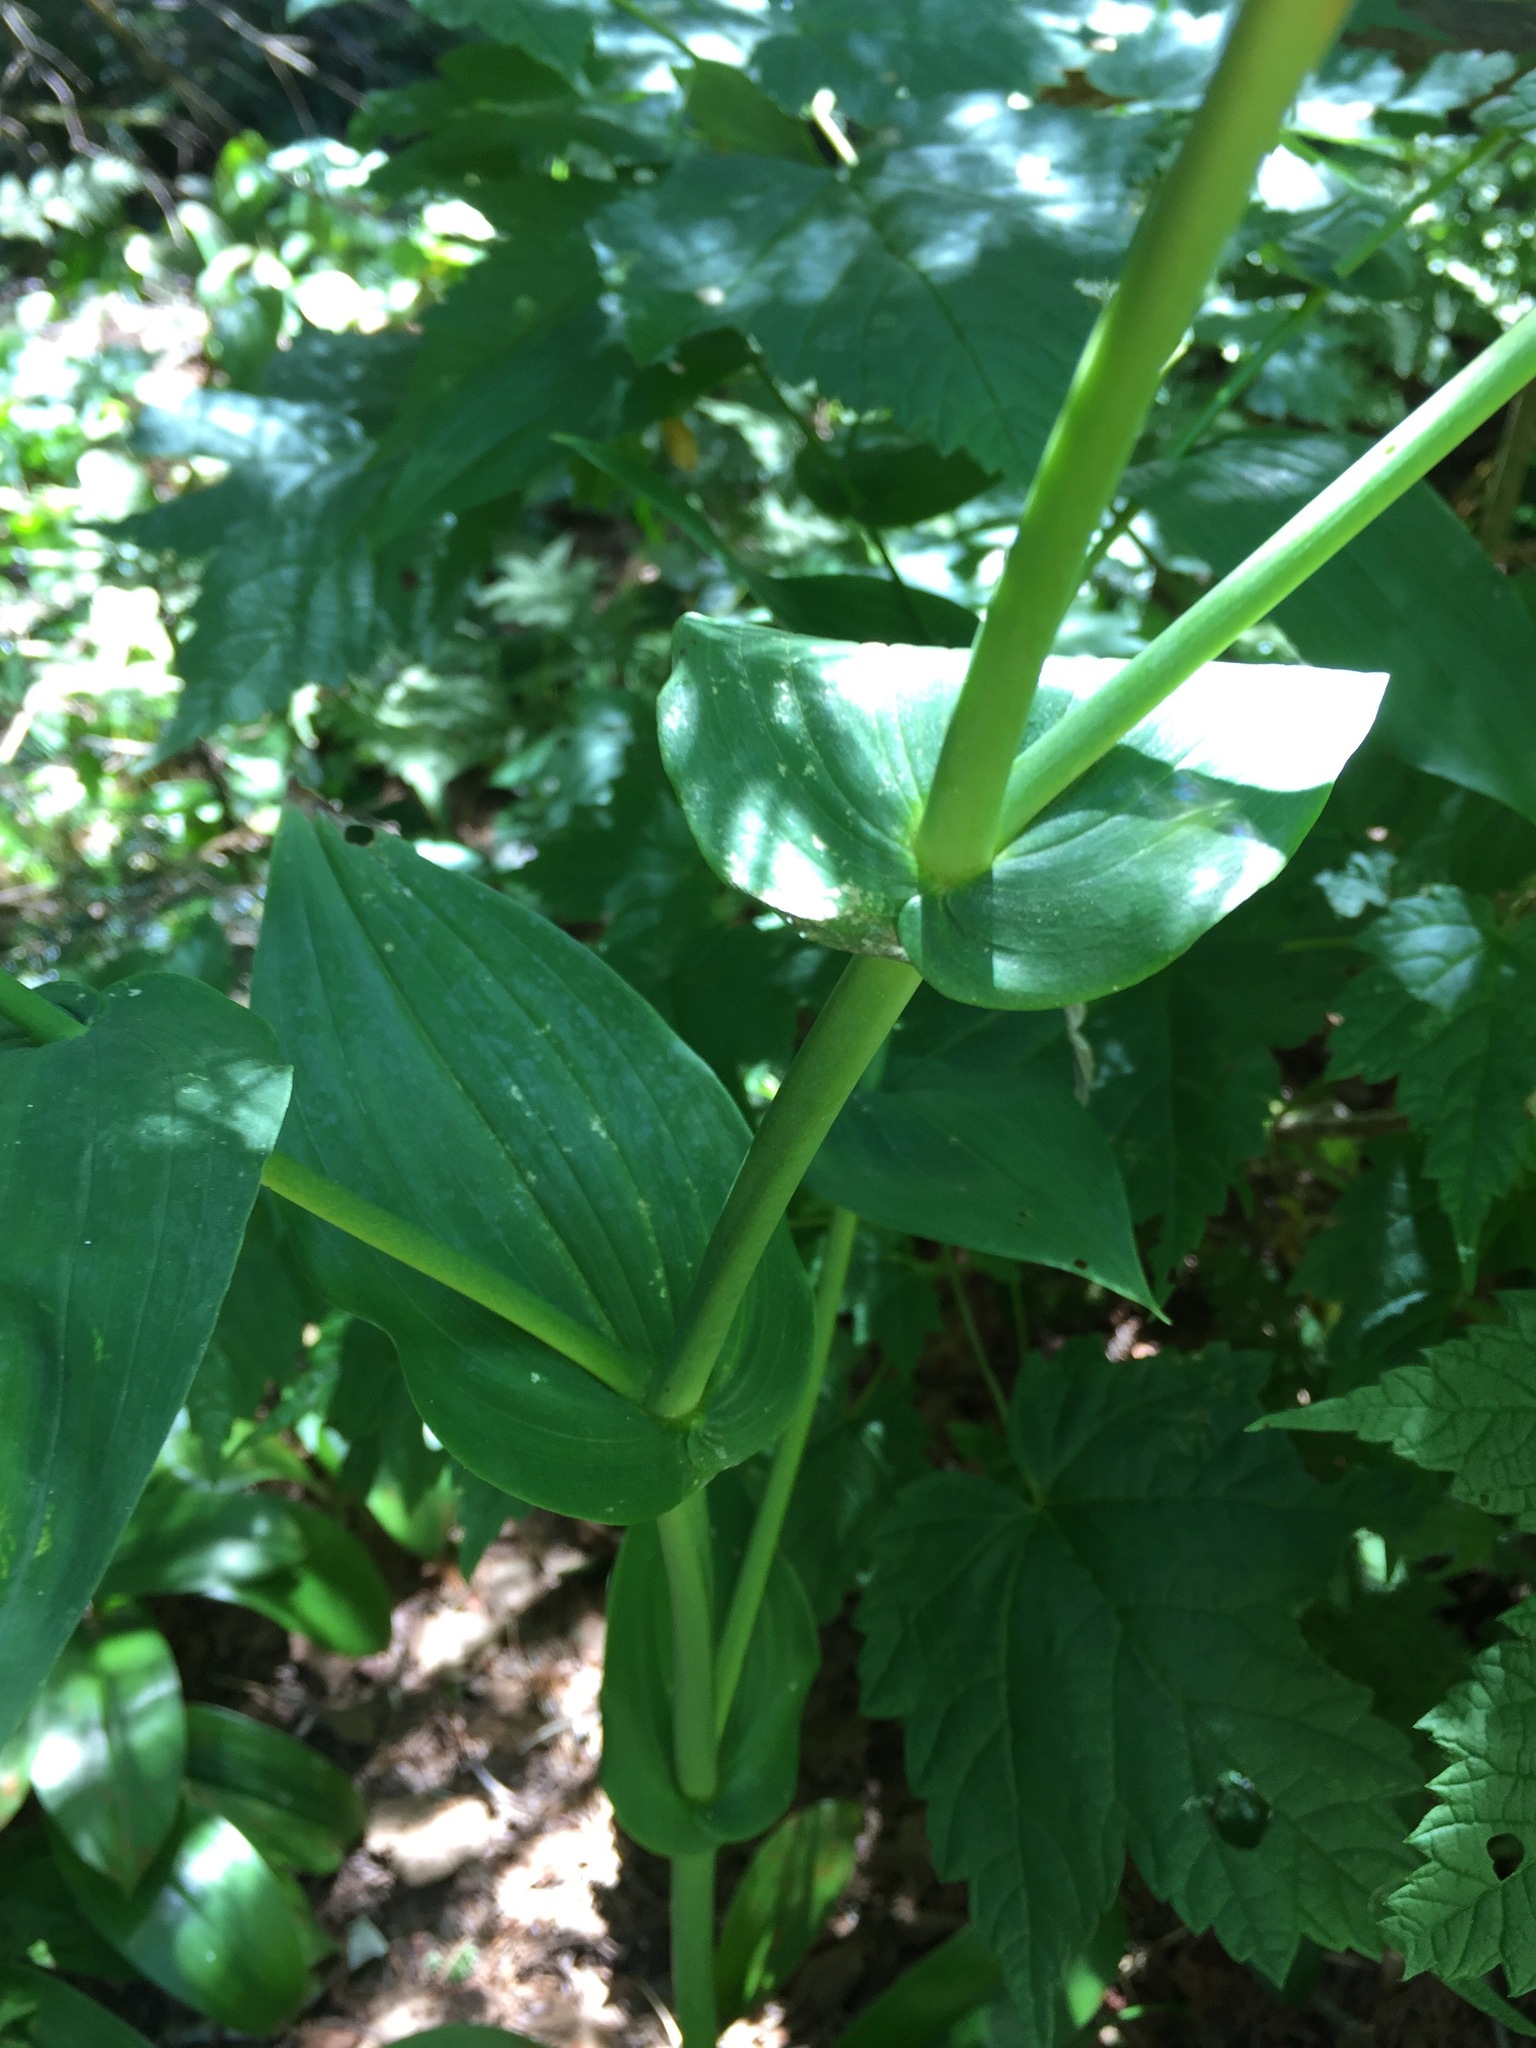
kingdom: Plantae
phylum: Tracheophyta
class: Liliopsida
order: Liliales
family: Liliaceae
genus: Streptopus
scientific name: Streptopus amplexifolius
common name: Clasp twisted stalk
